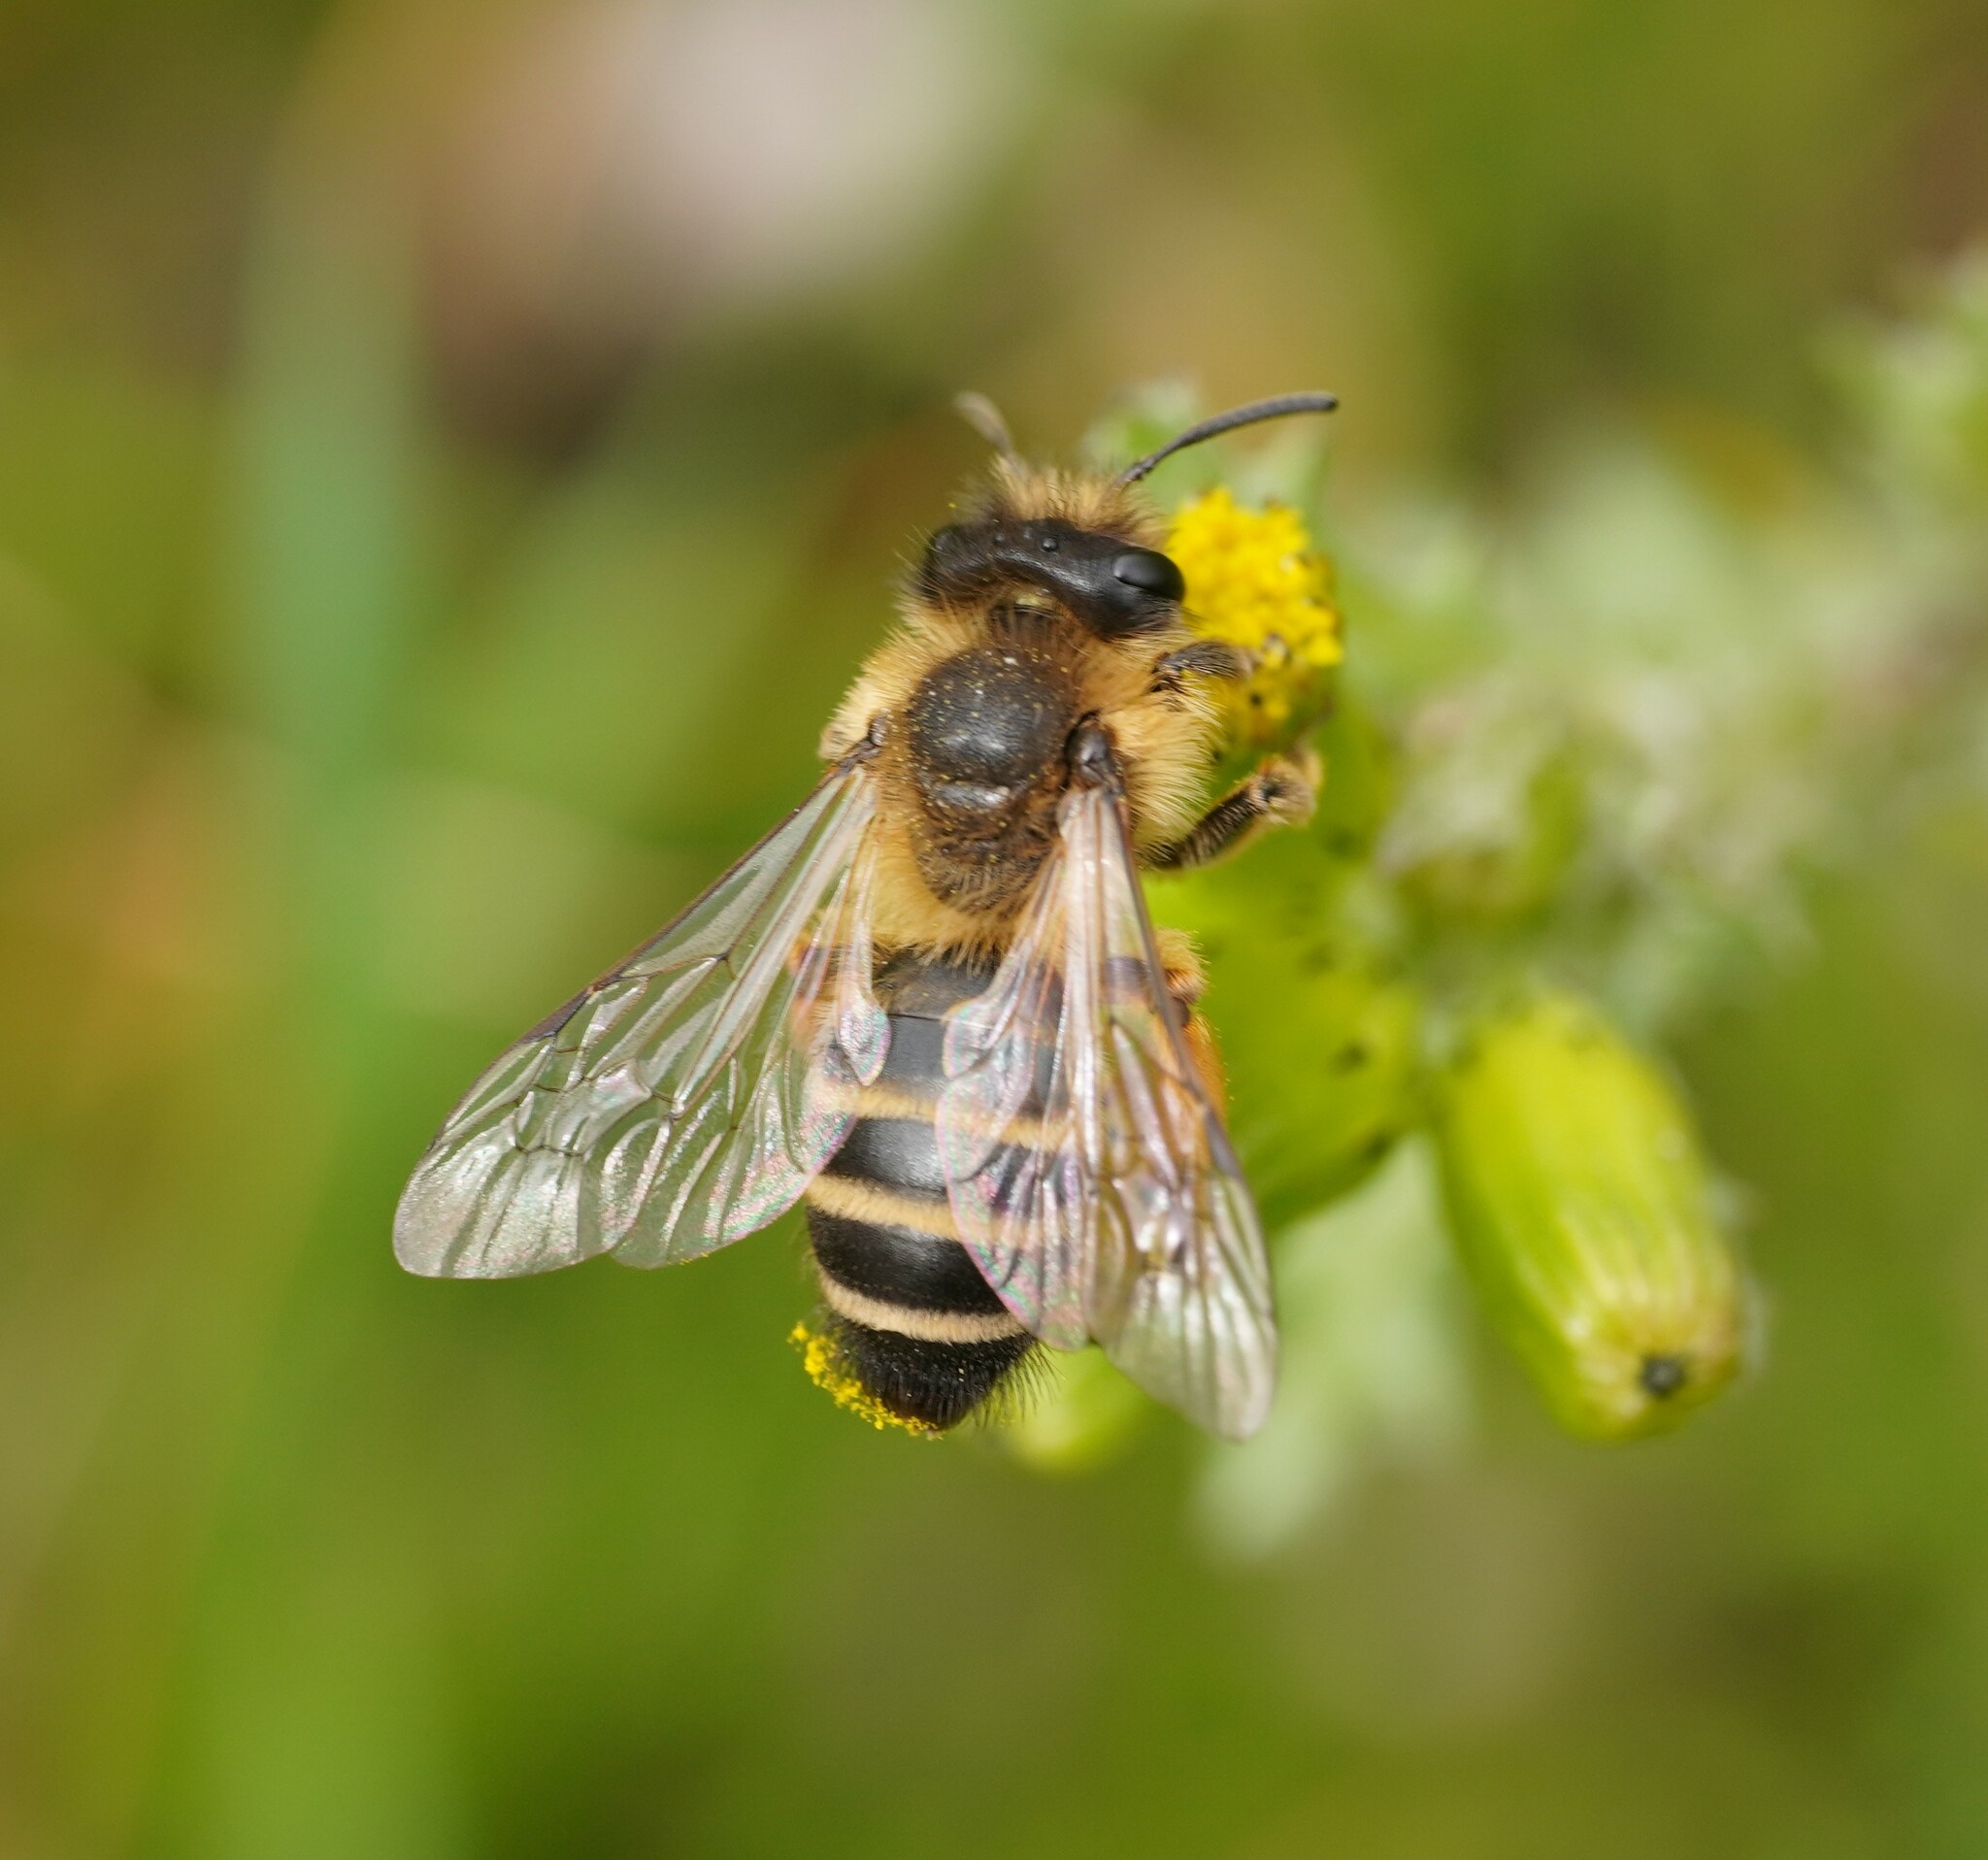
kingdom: Animalia
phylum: Arthropoda
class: Insecta
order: Hymenoptera
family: Andrenidae
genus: Andrena
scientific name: Andrena flavipes
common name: Yellow-legged mining bee
